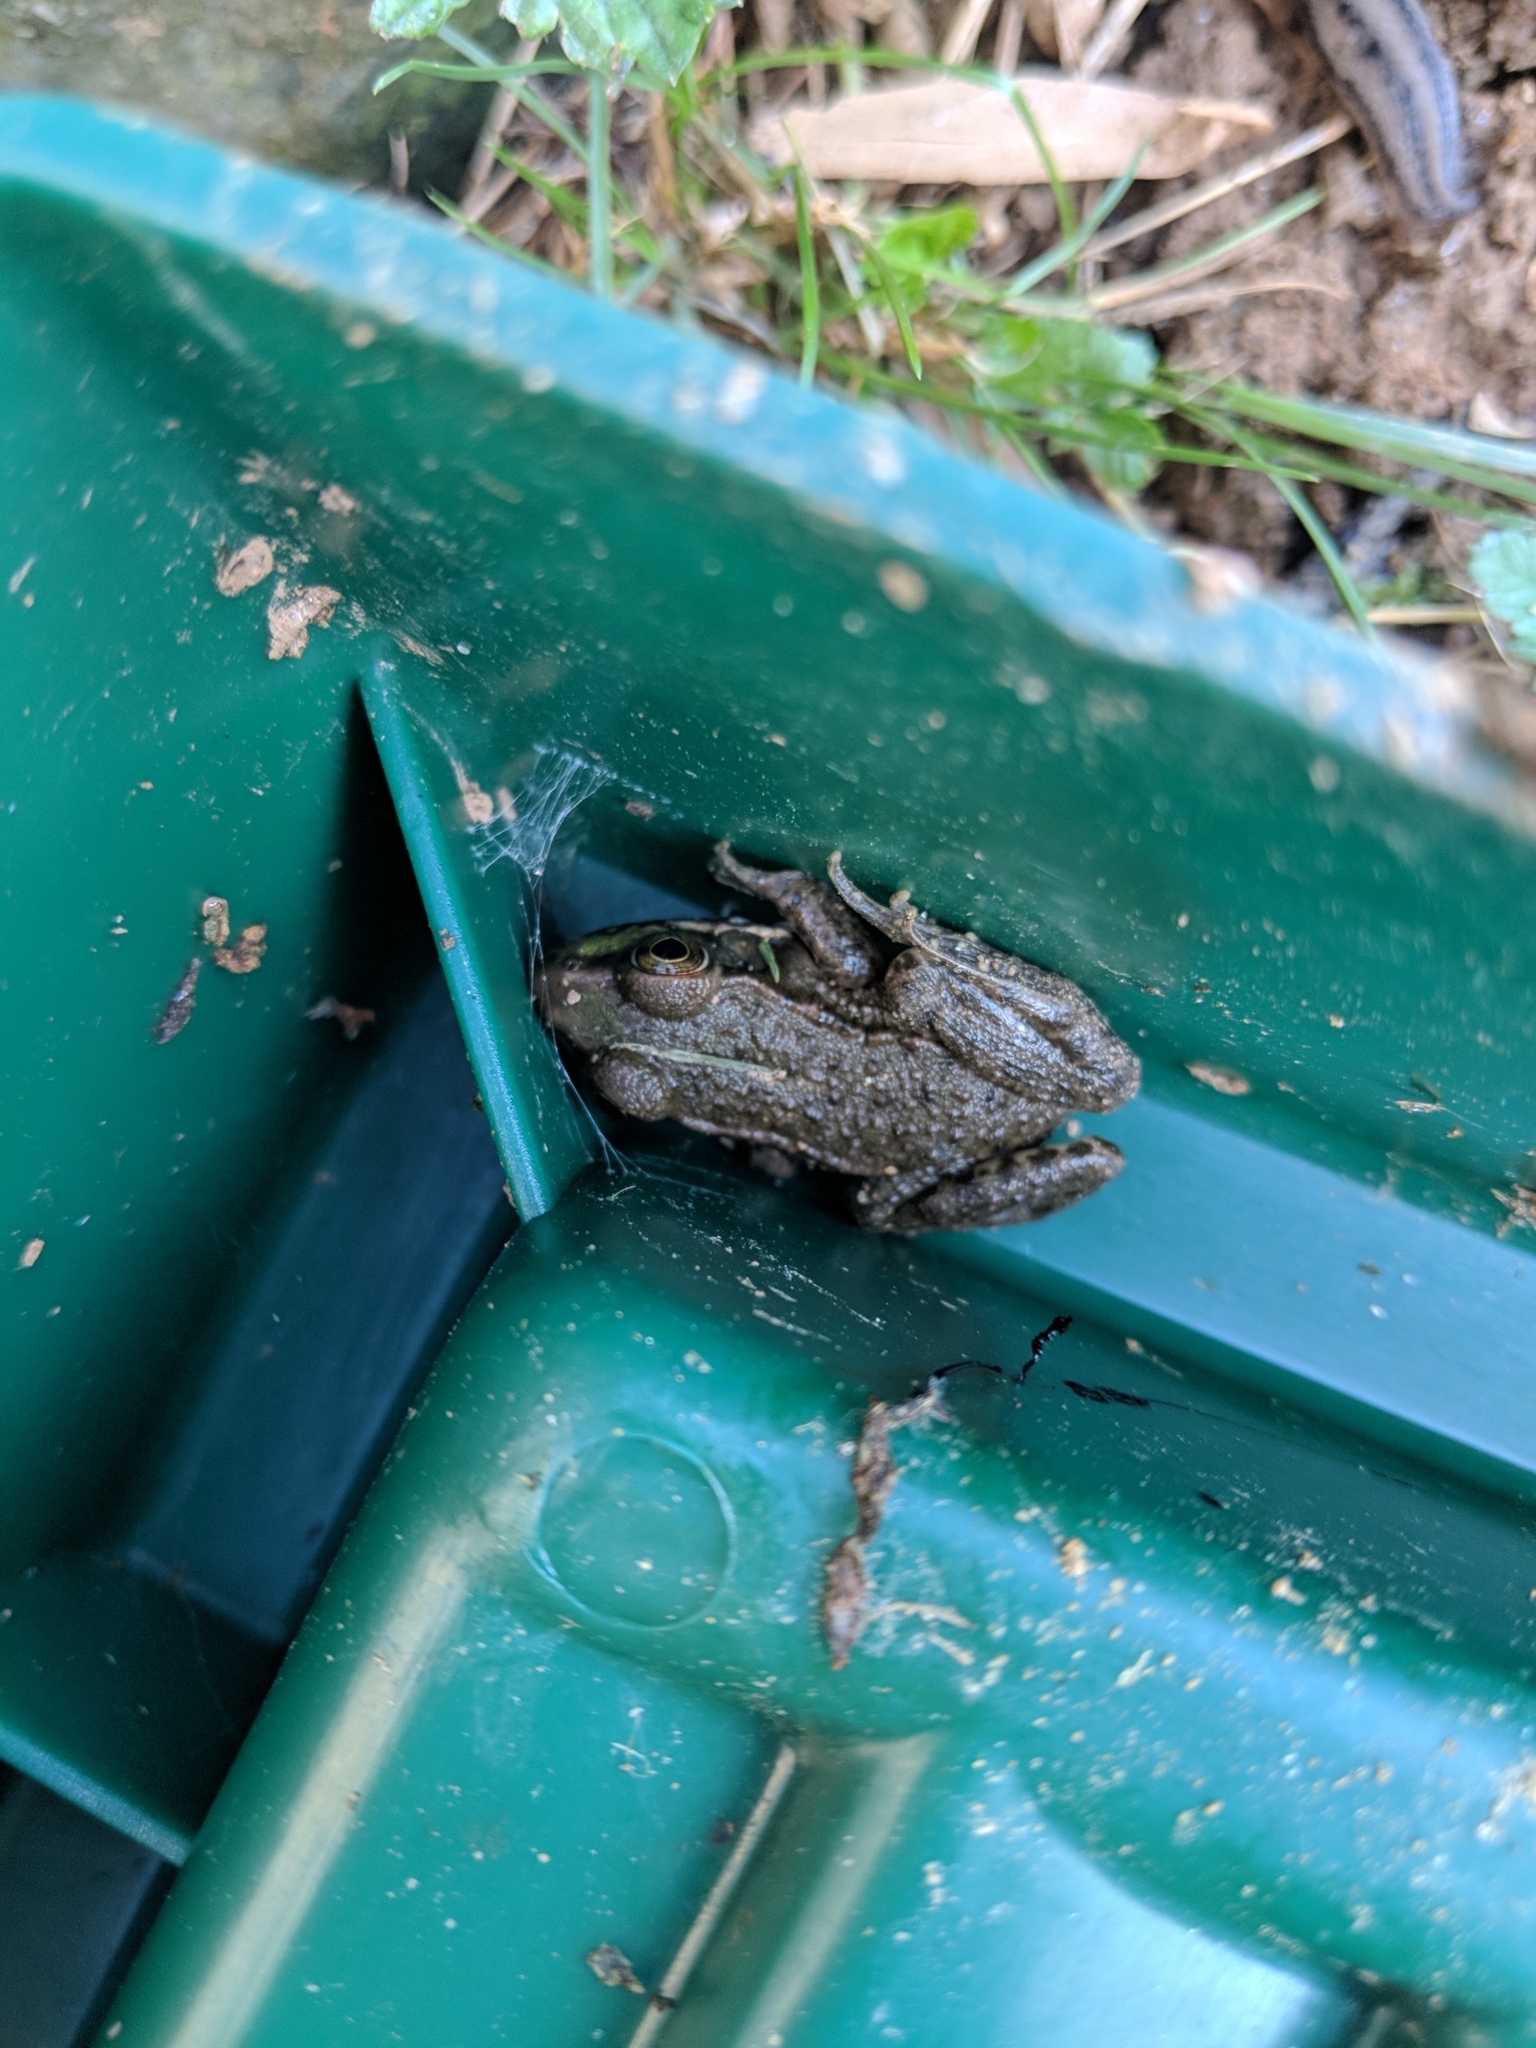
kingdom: Animalia
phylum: Chordata
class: Amphibia
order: Anura
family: Ranidae
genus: Lithobates
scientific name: Lithobates clamitans
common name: Green frog
